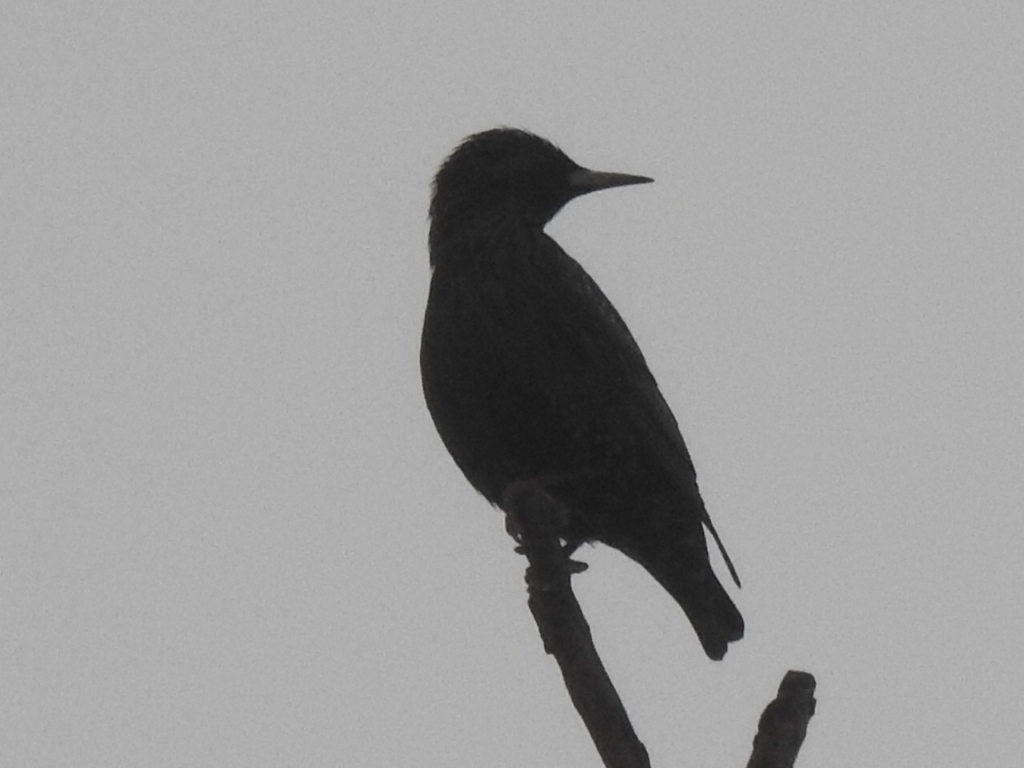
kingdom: Animalia
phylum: Chordata
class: Aves
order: Passeriformes
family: Sturnidae
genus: Sturnus
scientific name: Sturnus vulgaris
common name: Common starling
